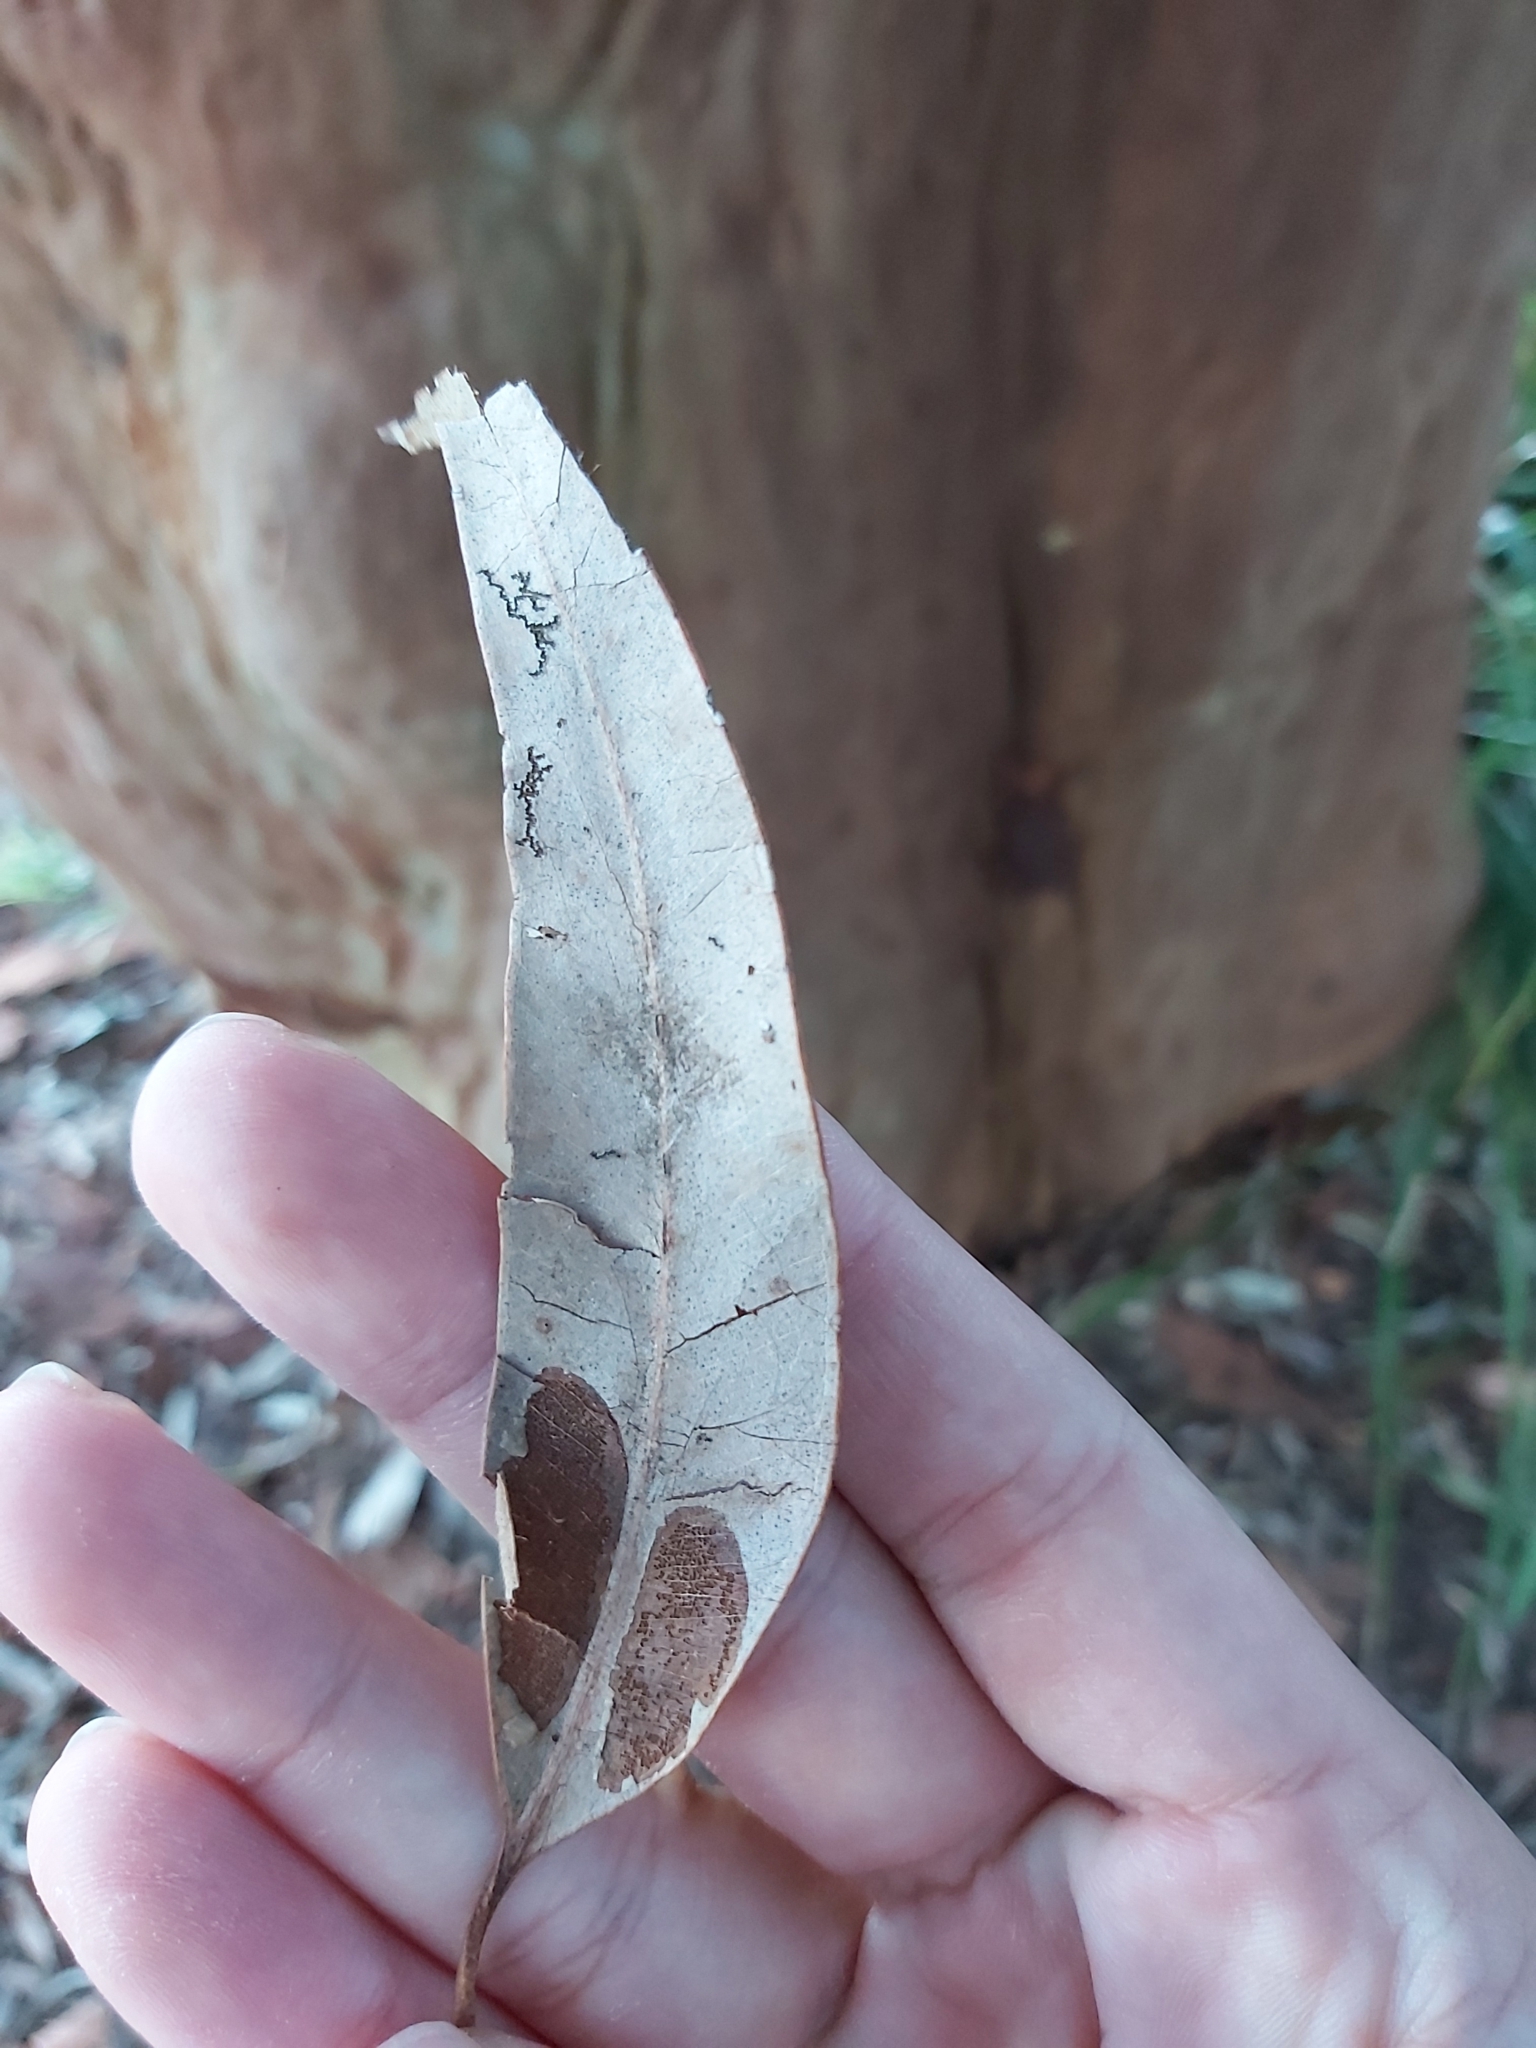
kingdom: Plantae
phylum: Tracheophyta
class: Magnoliopsida
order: Myrtales
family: Myrtaceae
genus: Angophora
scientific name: Angophora costata
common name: Gum myrtle
